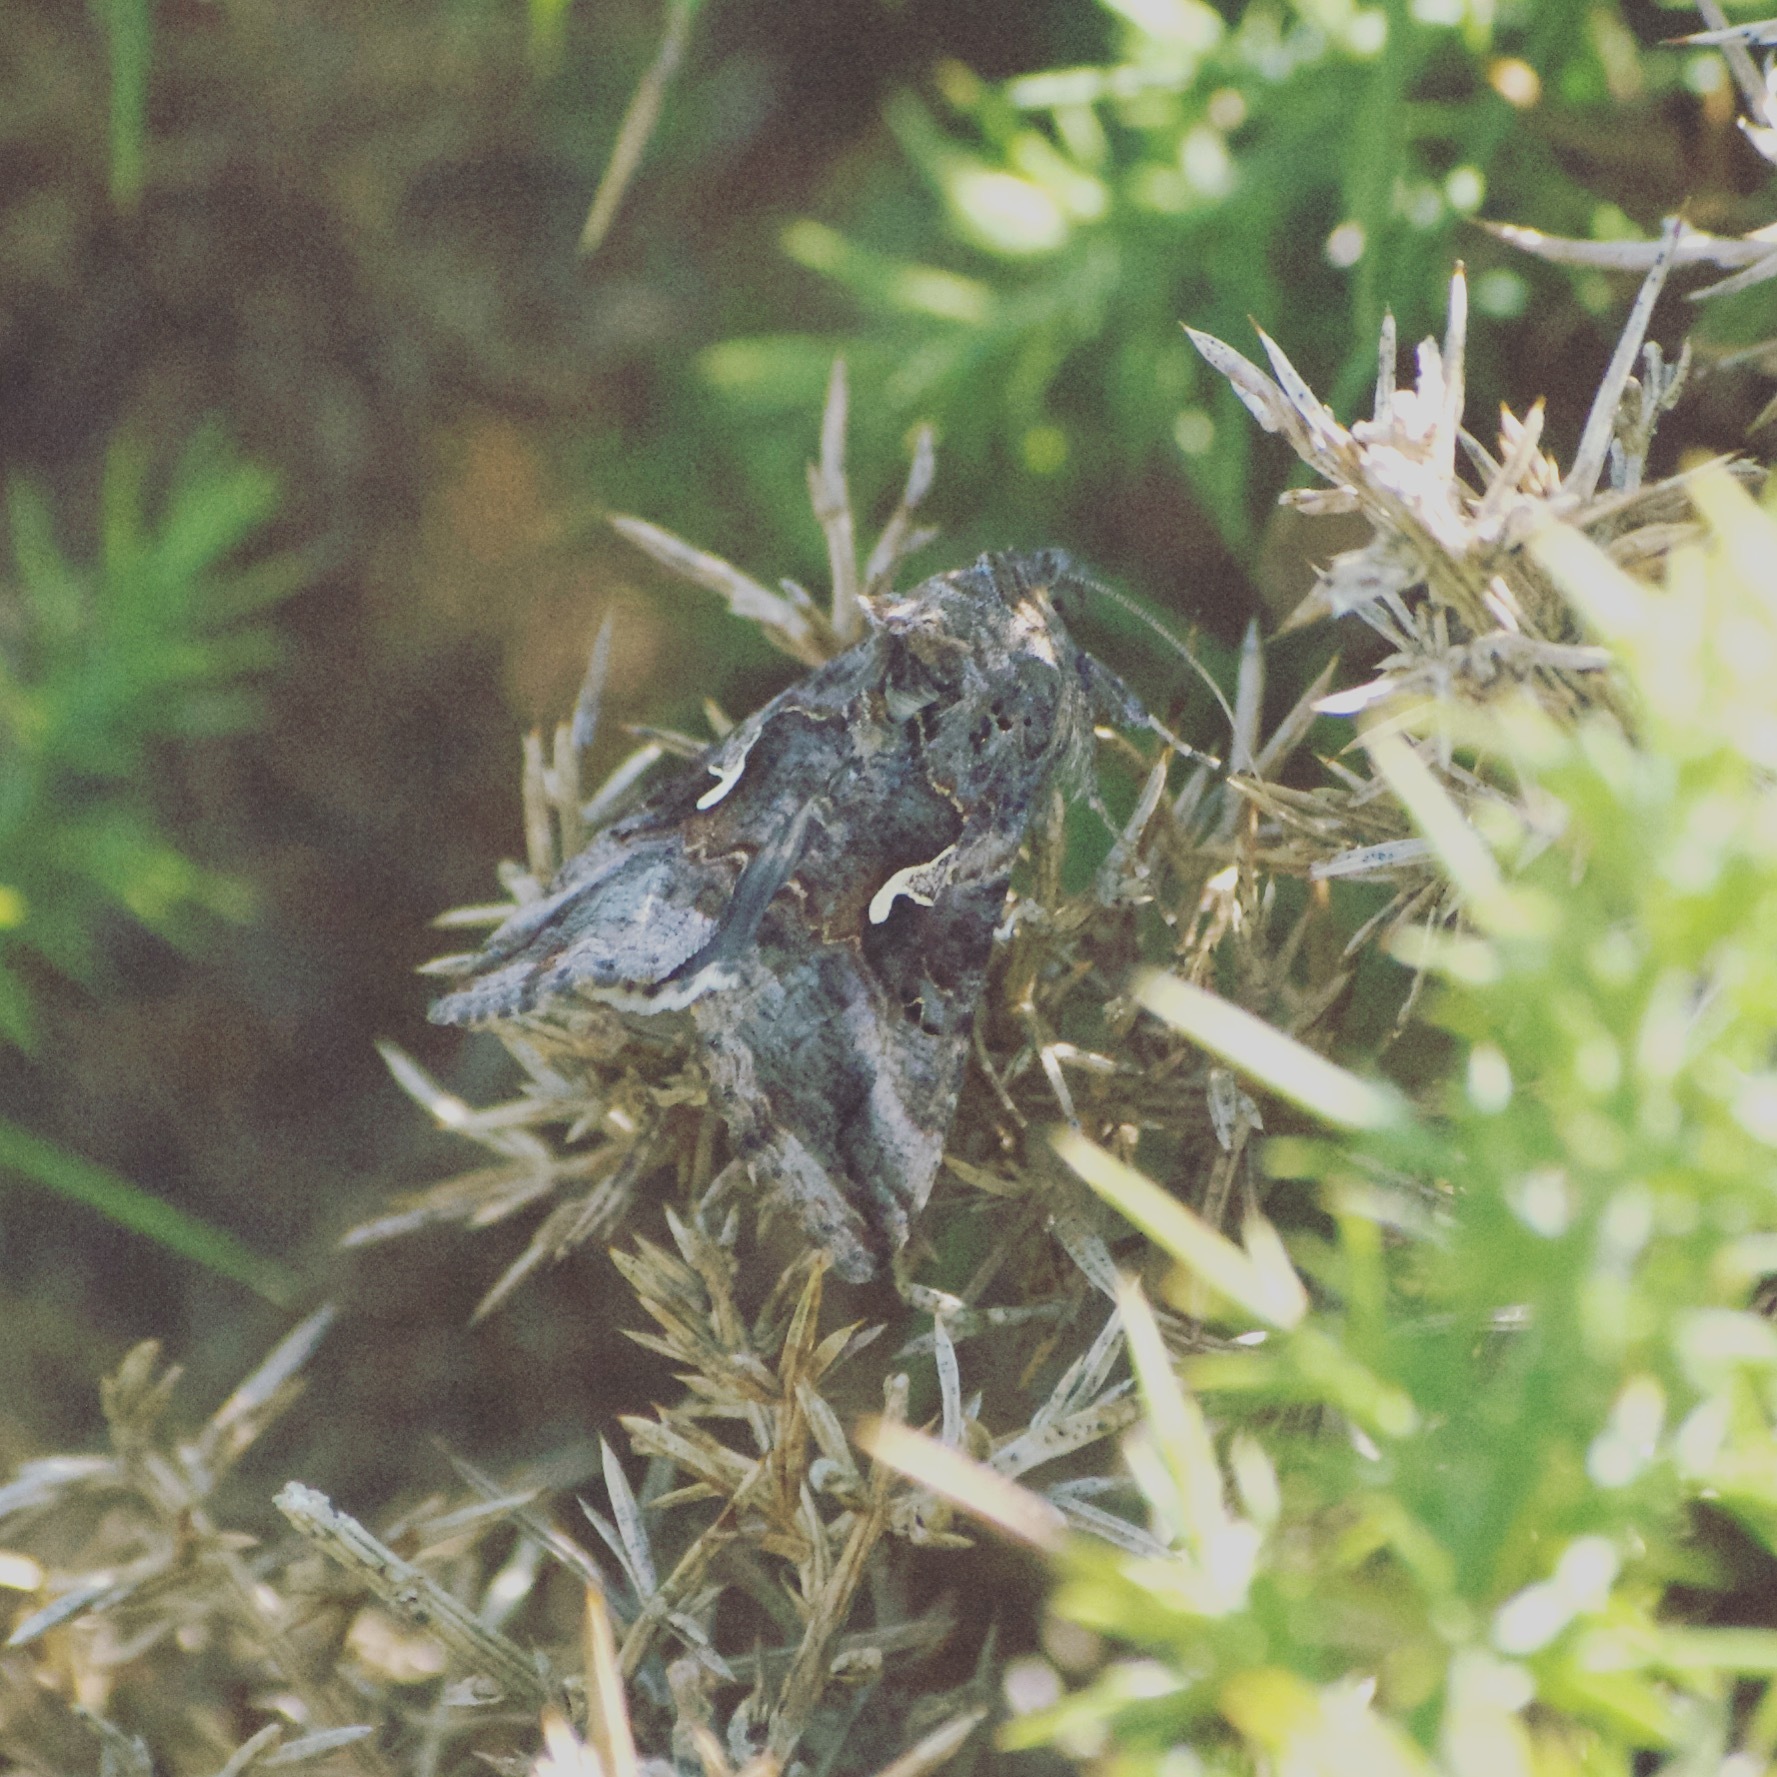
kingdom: Animalia
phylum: Arthropoda
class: Insecta
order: Lepidoptera
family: Noctuidae
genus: Autographa
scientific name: Autographa gamma
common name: Silver y
